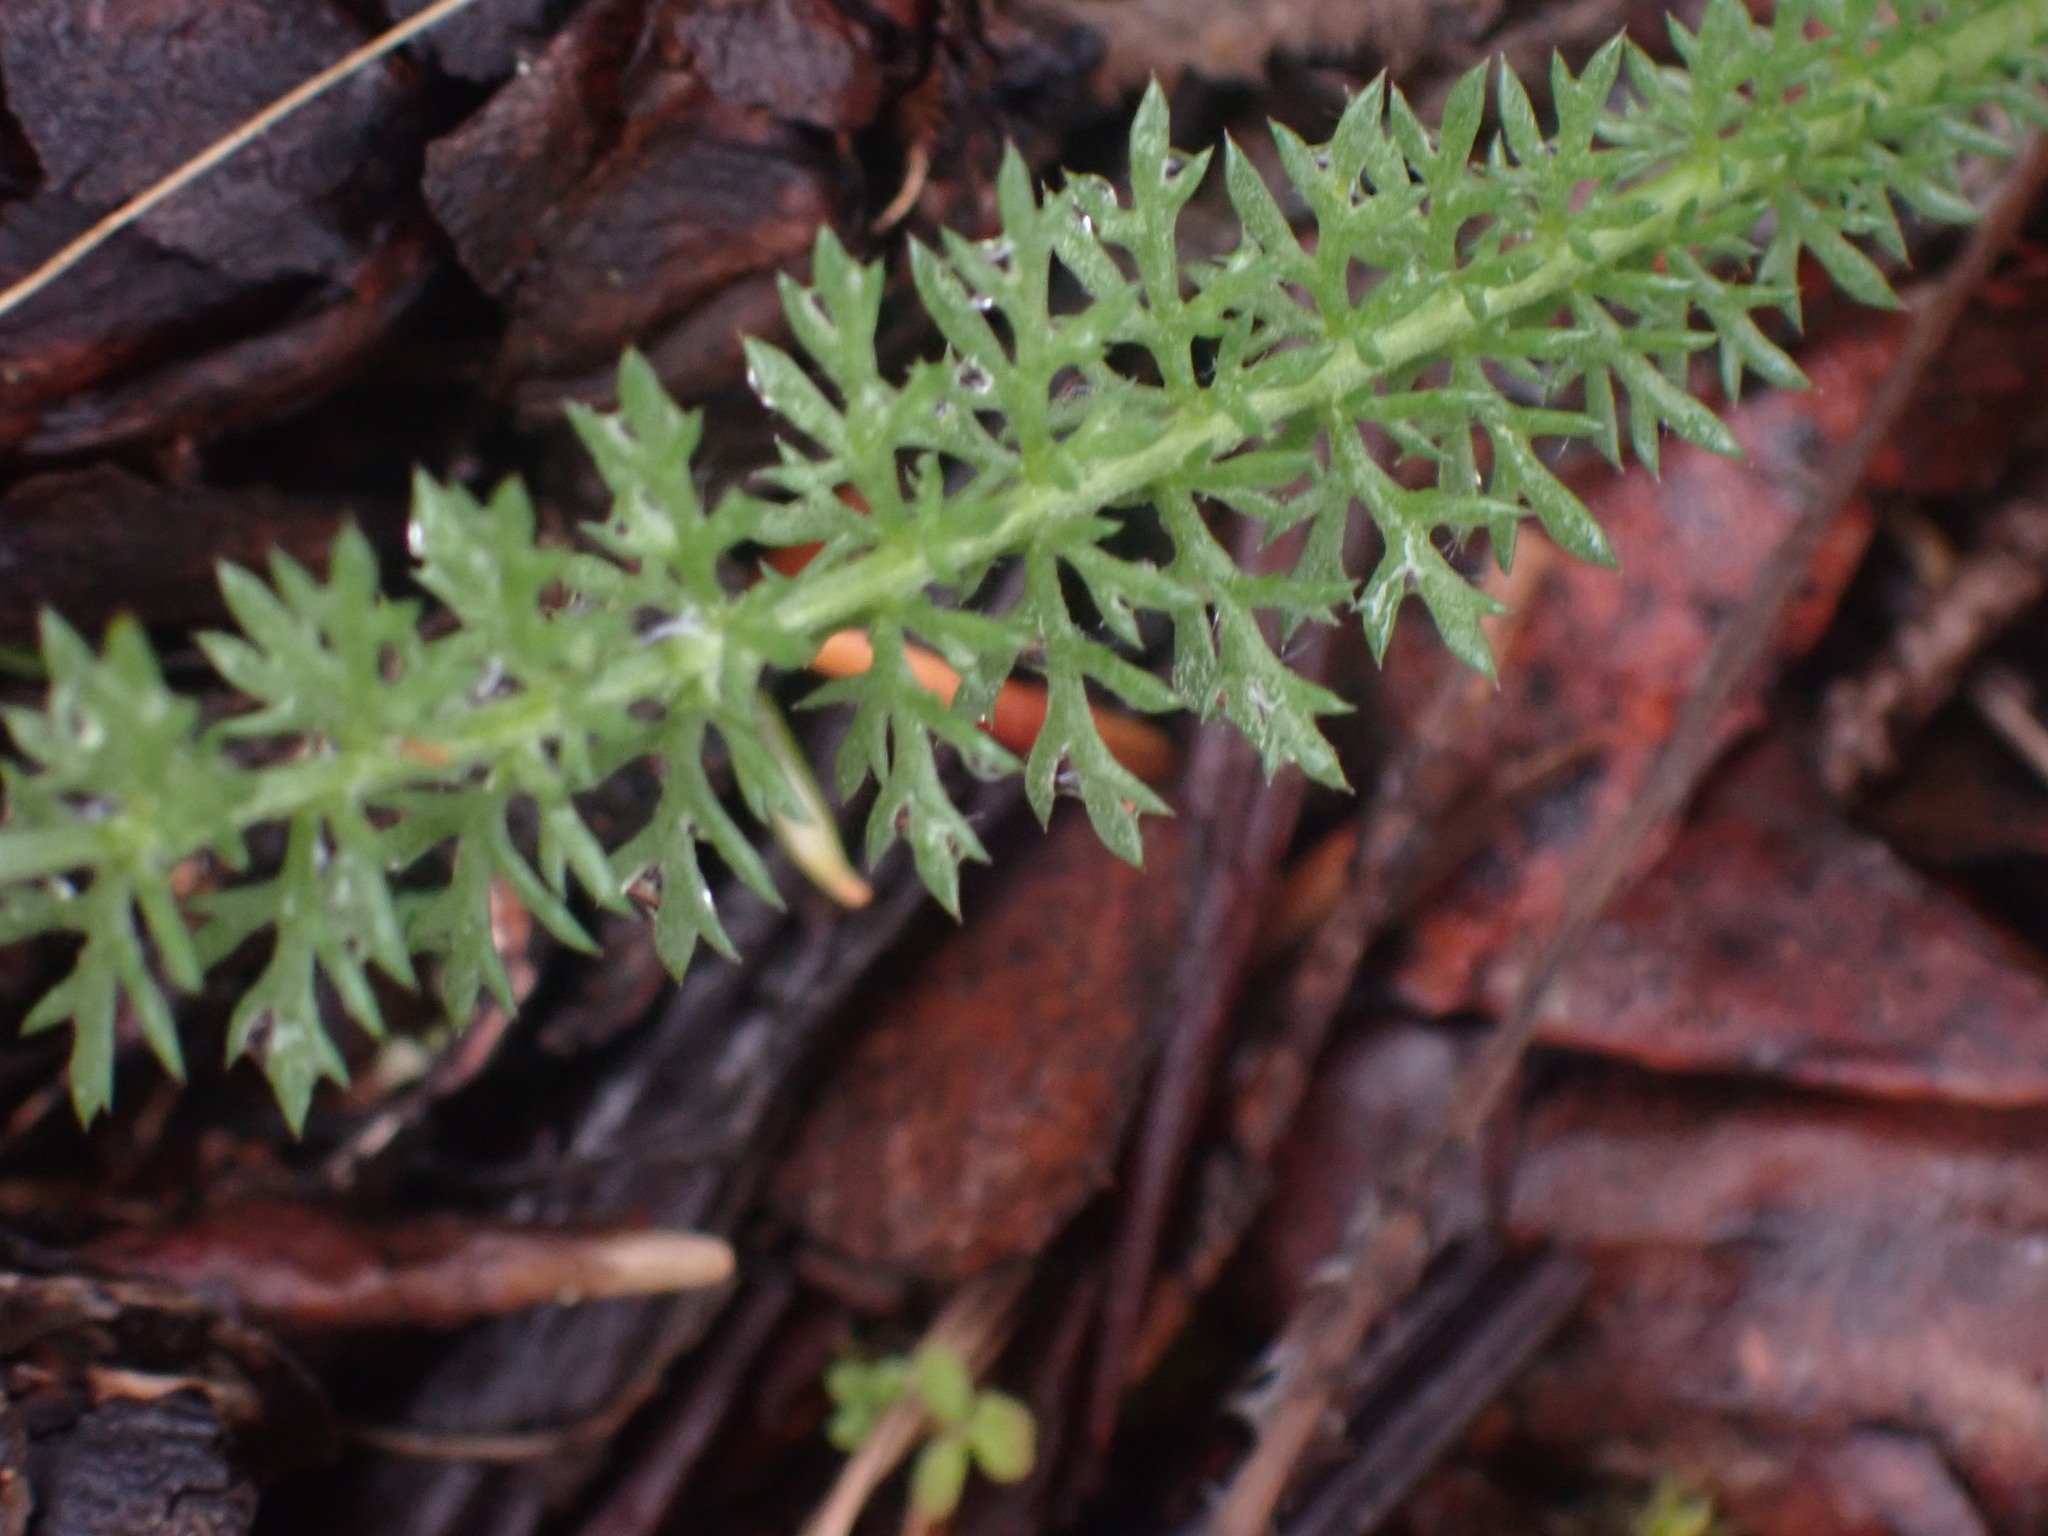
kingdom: Plantae
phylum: Tracheophyta
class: Magnoliopsida
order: Asterales
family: Asteraceae
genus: Achillea
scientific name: Achillea millefolium
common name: Yarrow
